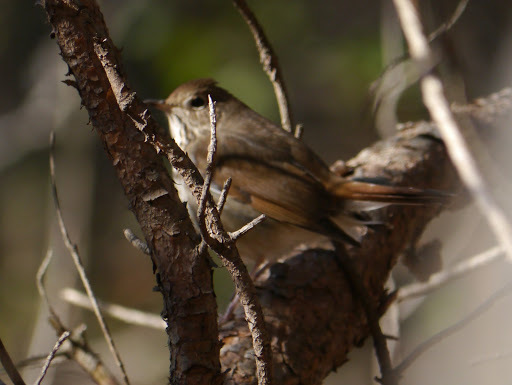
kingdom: Animalia
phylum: Chordata
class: Aves
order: Passeriformes
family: Turdidae
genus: Catharus
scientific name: Catharus guttatus
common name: Hermit thrush
